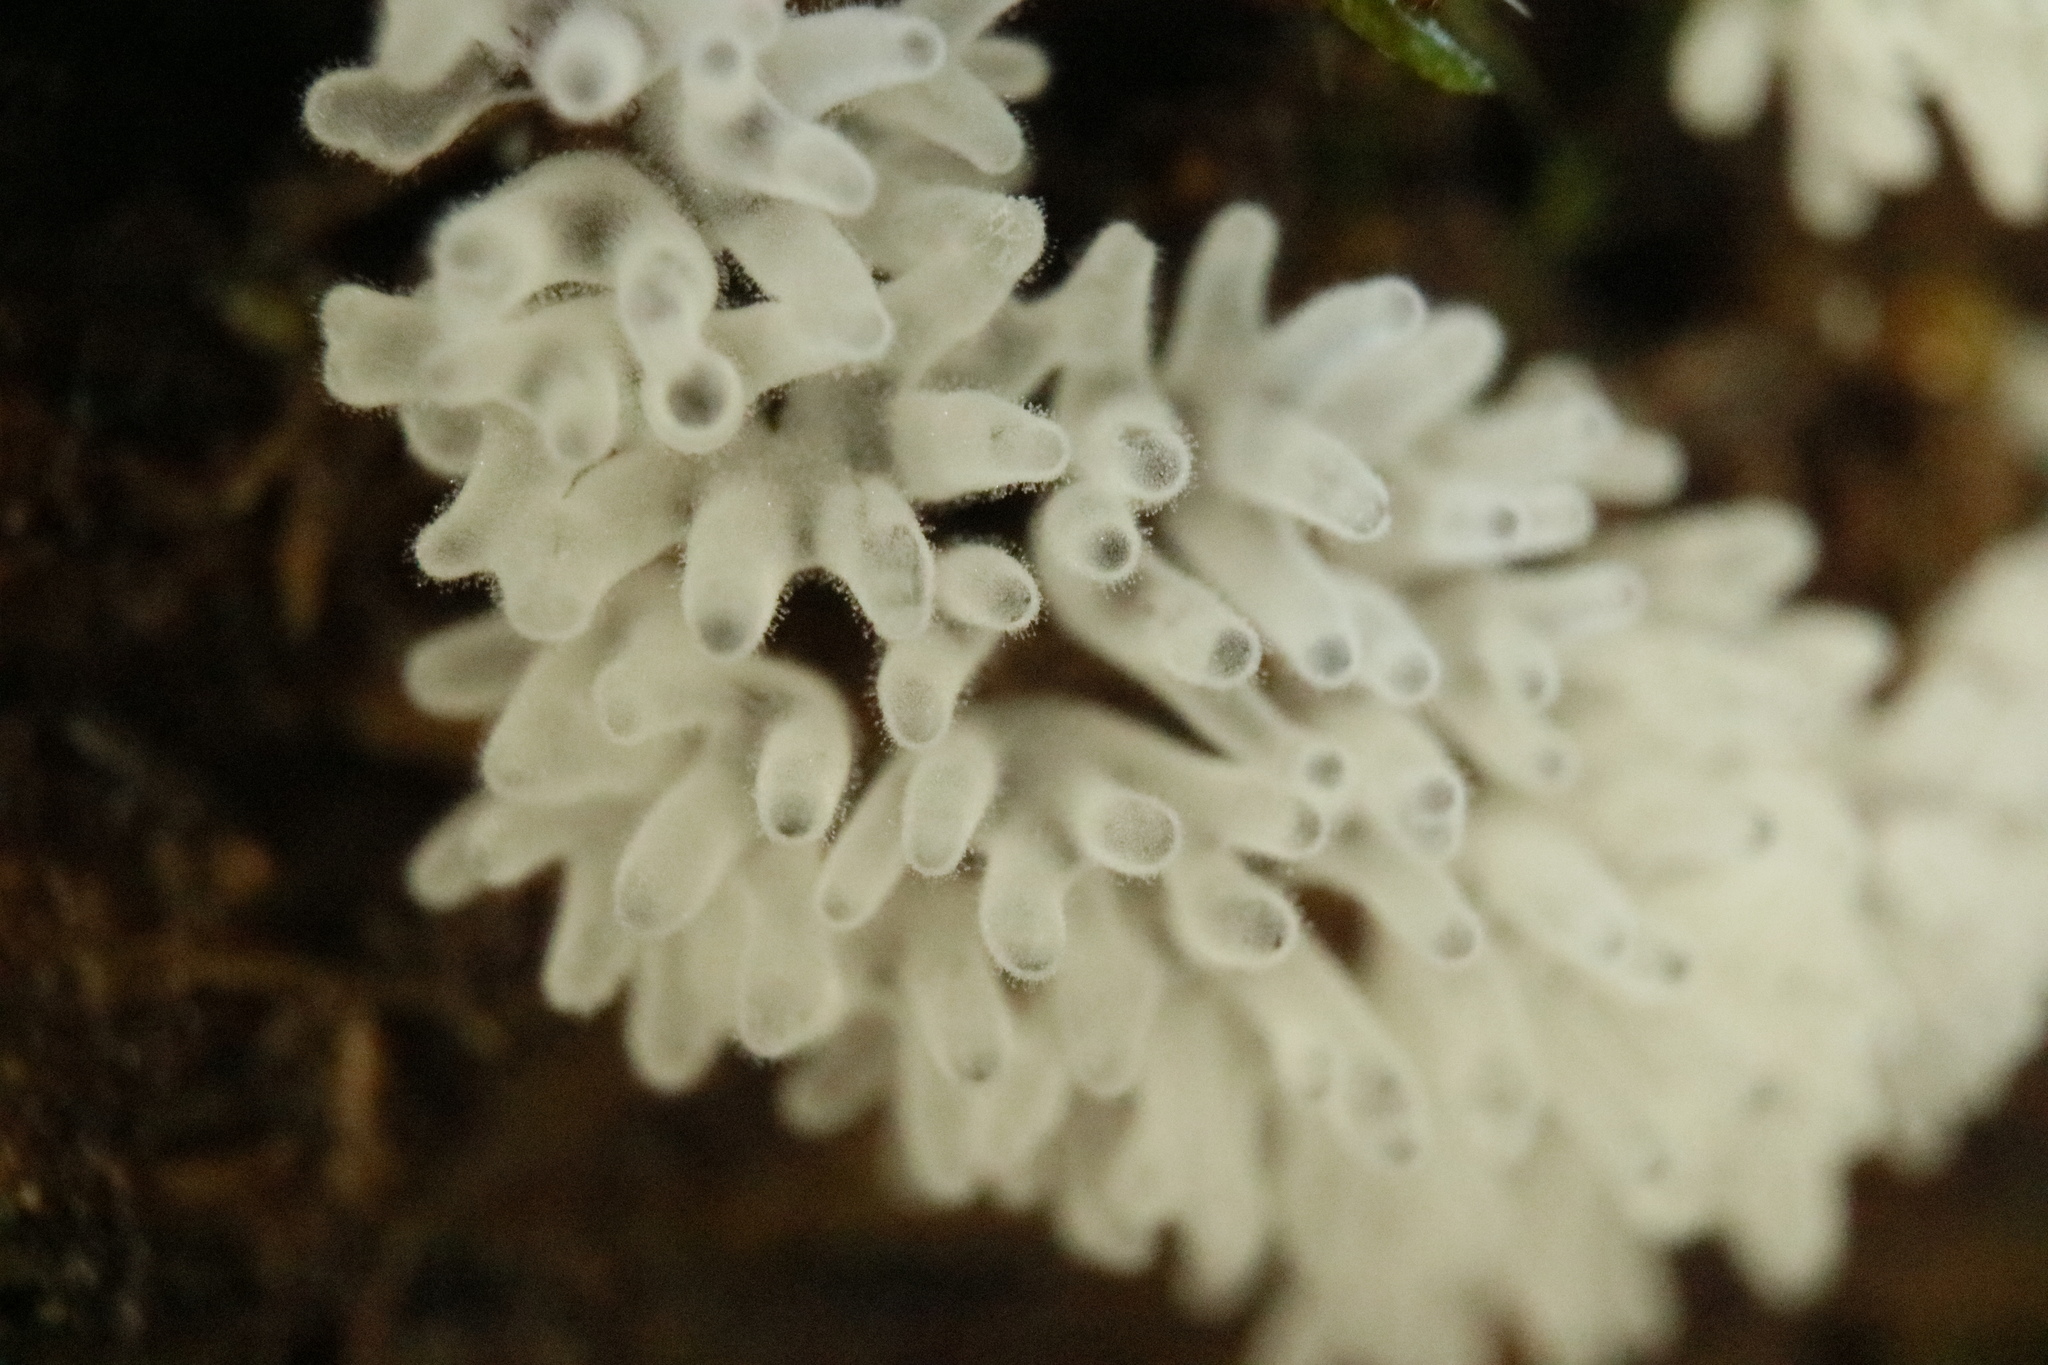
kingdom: Protozoa
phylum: Mycetozoa
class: Protosteliomycetes
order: Ceratiomyxales
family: Ceratiomyxaceae
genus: Ceratiomyxa
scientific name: Ceratiomyxa fruticulosa
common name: Honeycomb coral slime mold
